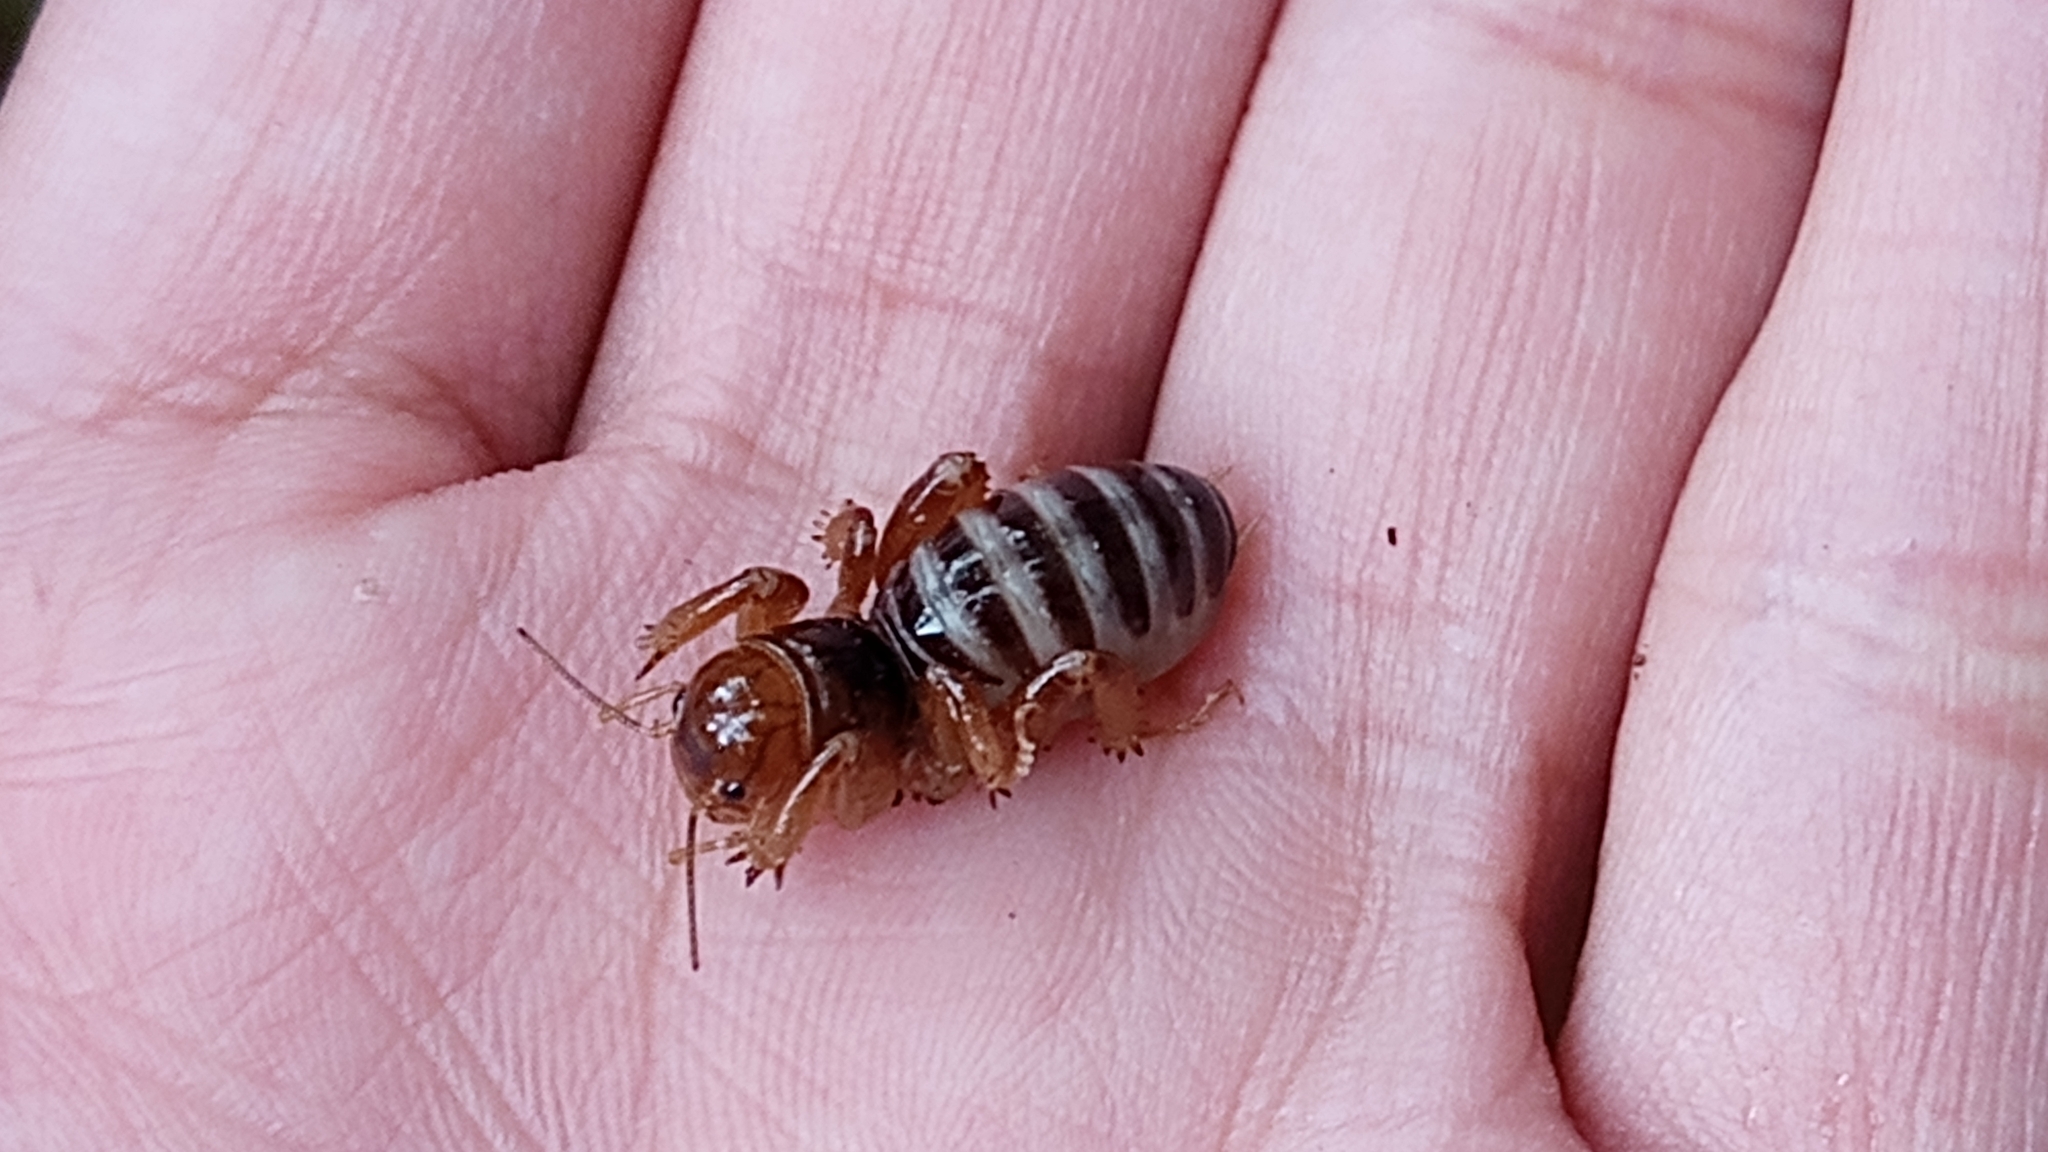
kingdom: Animalia
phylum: Arthropoda
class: Insecta
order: Orthoptera
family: Stenopelmatidae
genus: Stenopelmatus
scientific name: Stenopelmatus talpa
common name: Mole jerusalem cricket
